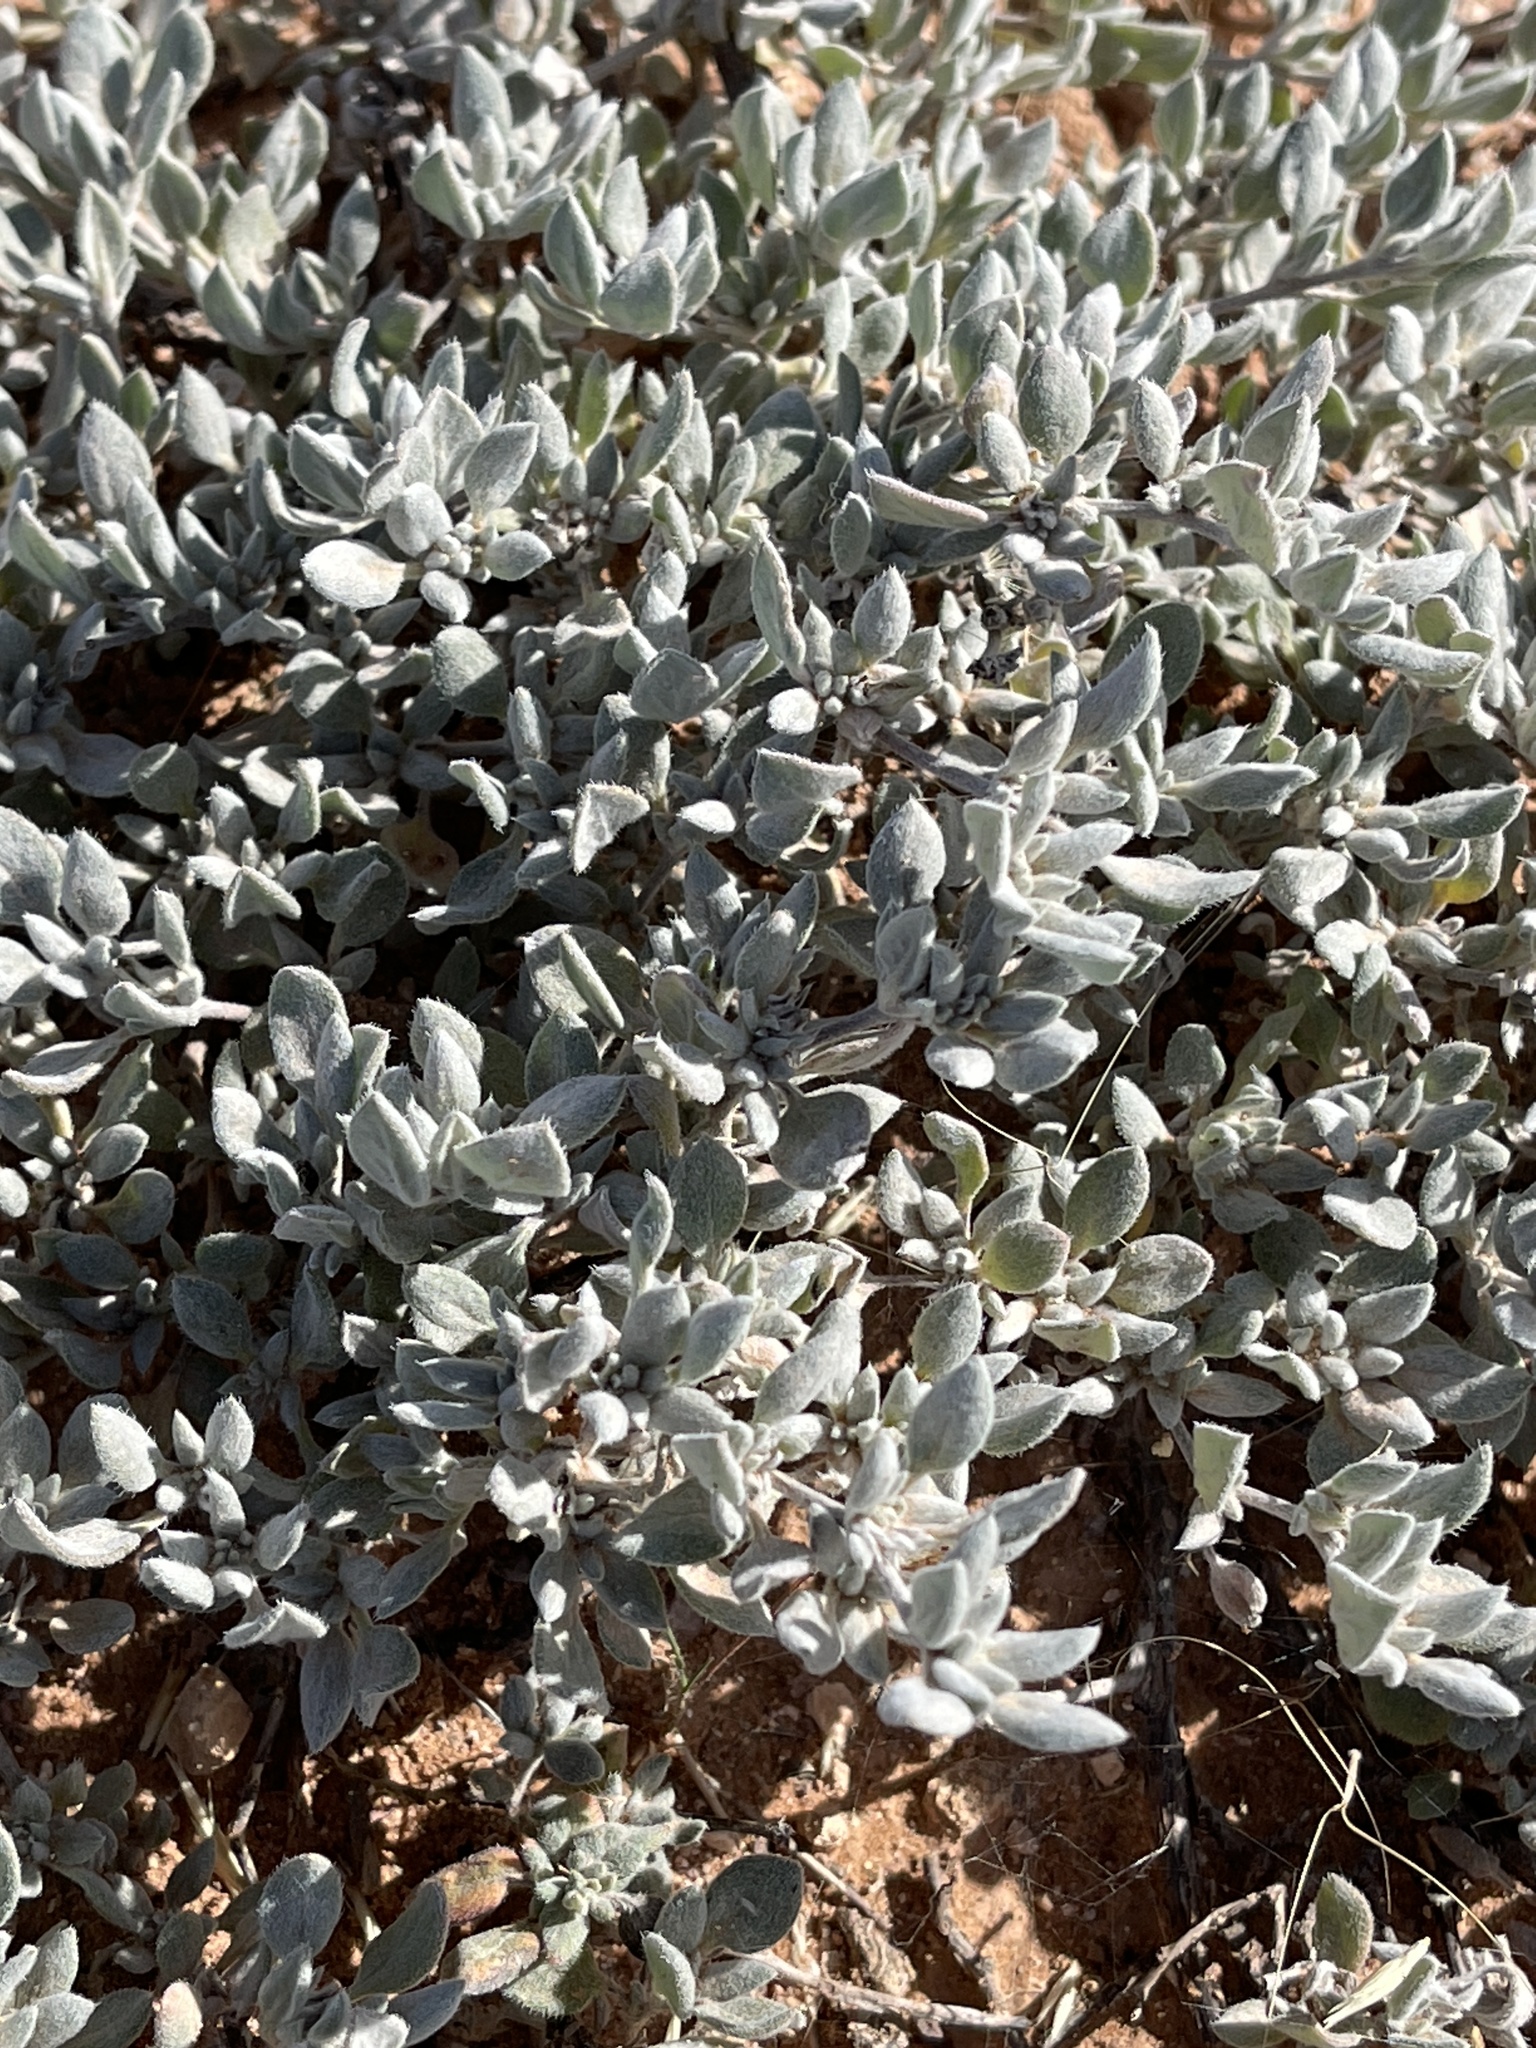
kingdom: Plantae
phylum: Tracheophyta
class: Magnoliopsida
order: Boraginales
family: Ehretiaceae
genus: Tiquilia
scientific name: Tiquilia canescens
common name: Hairy tiquilia
